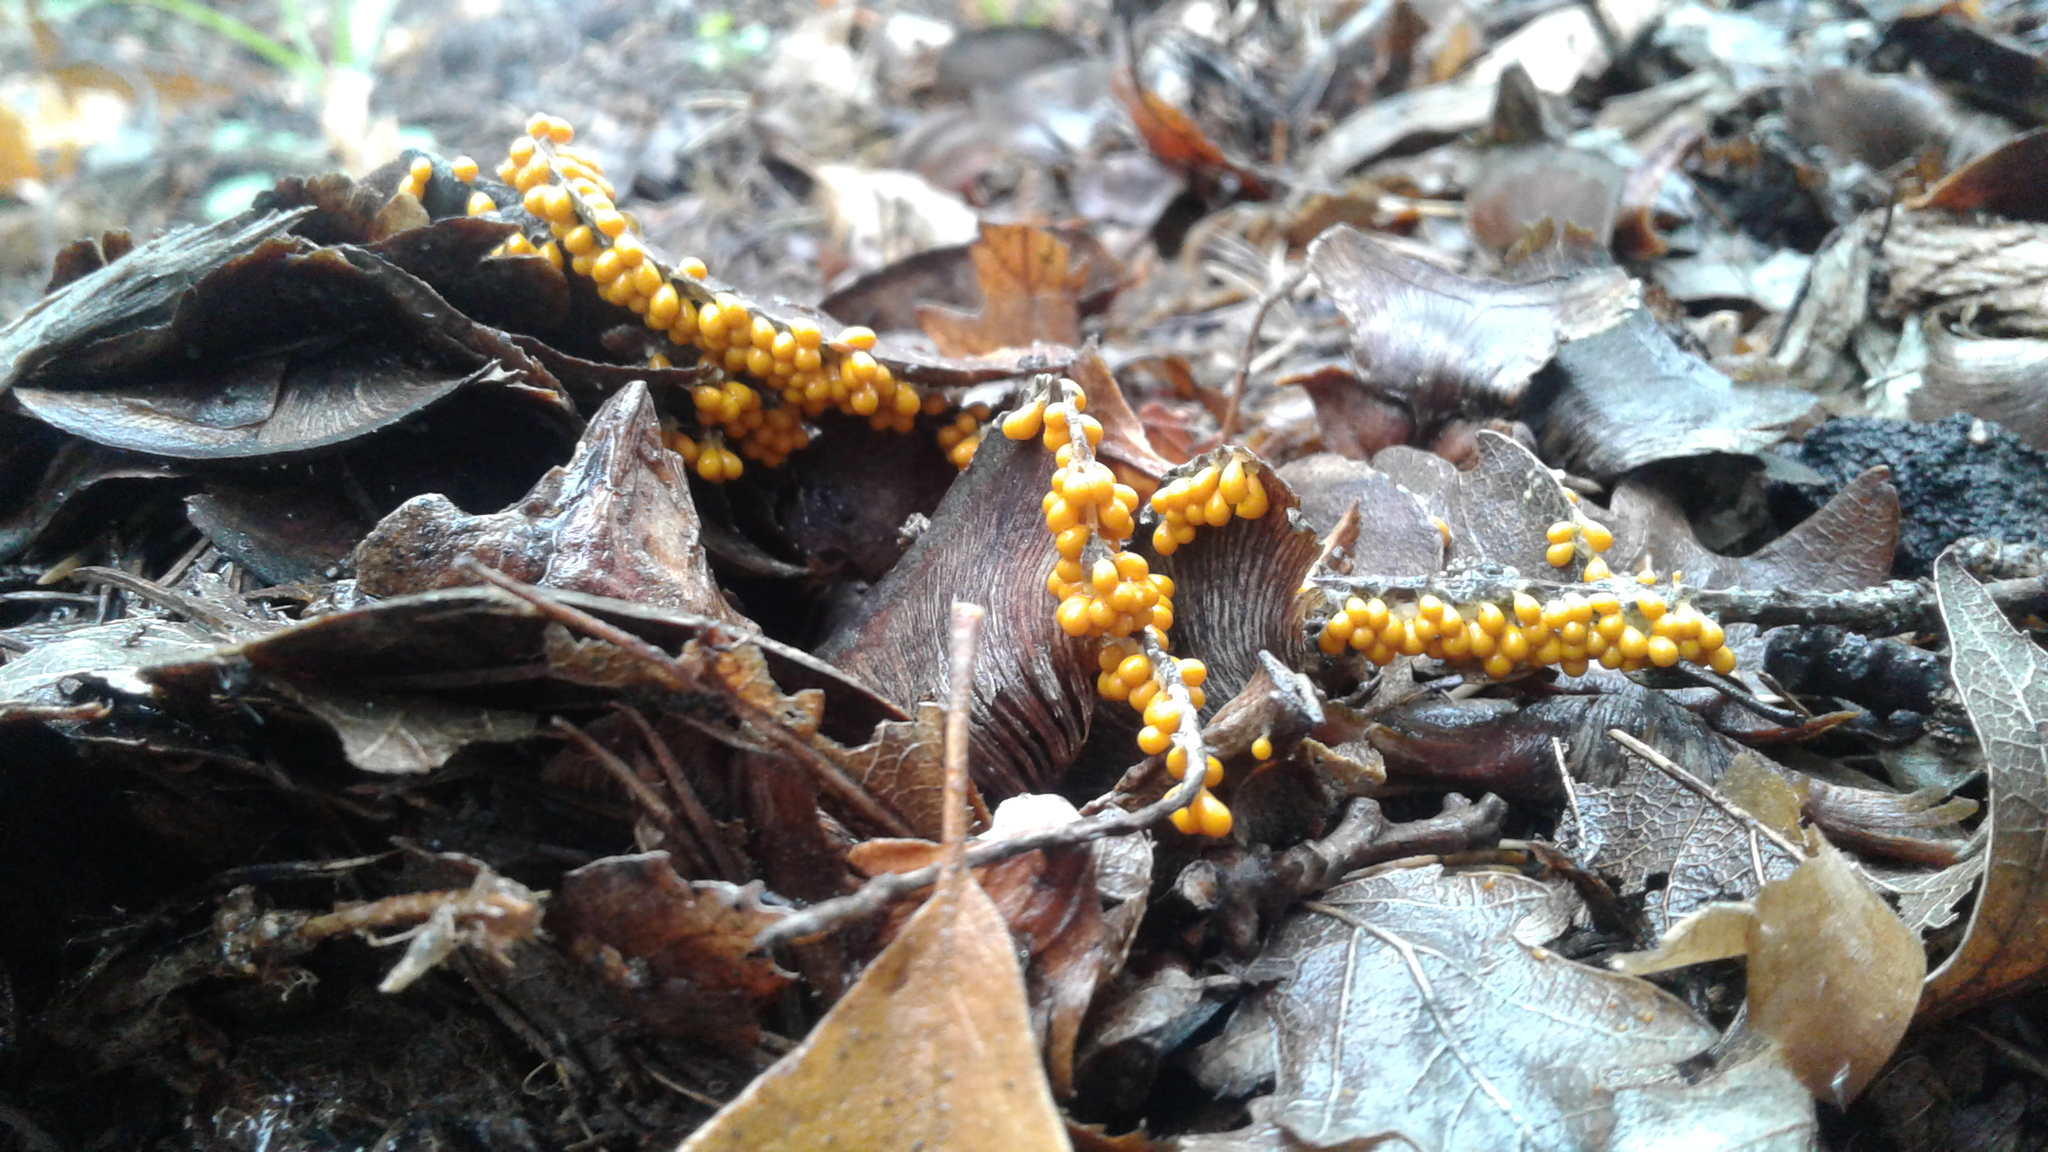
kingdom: Protozoa
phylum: Mycetozoa
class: Myxomycetes
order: Physarales
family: Physaraceae
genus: Leocarpus
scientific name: Leocarpus fragilis
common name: Insect-egg slime
